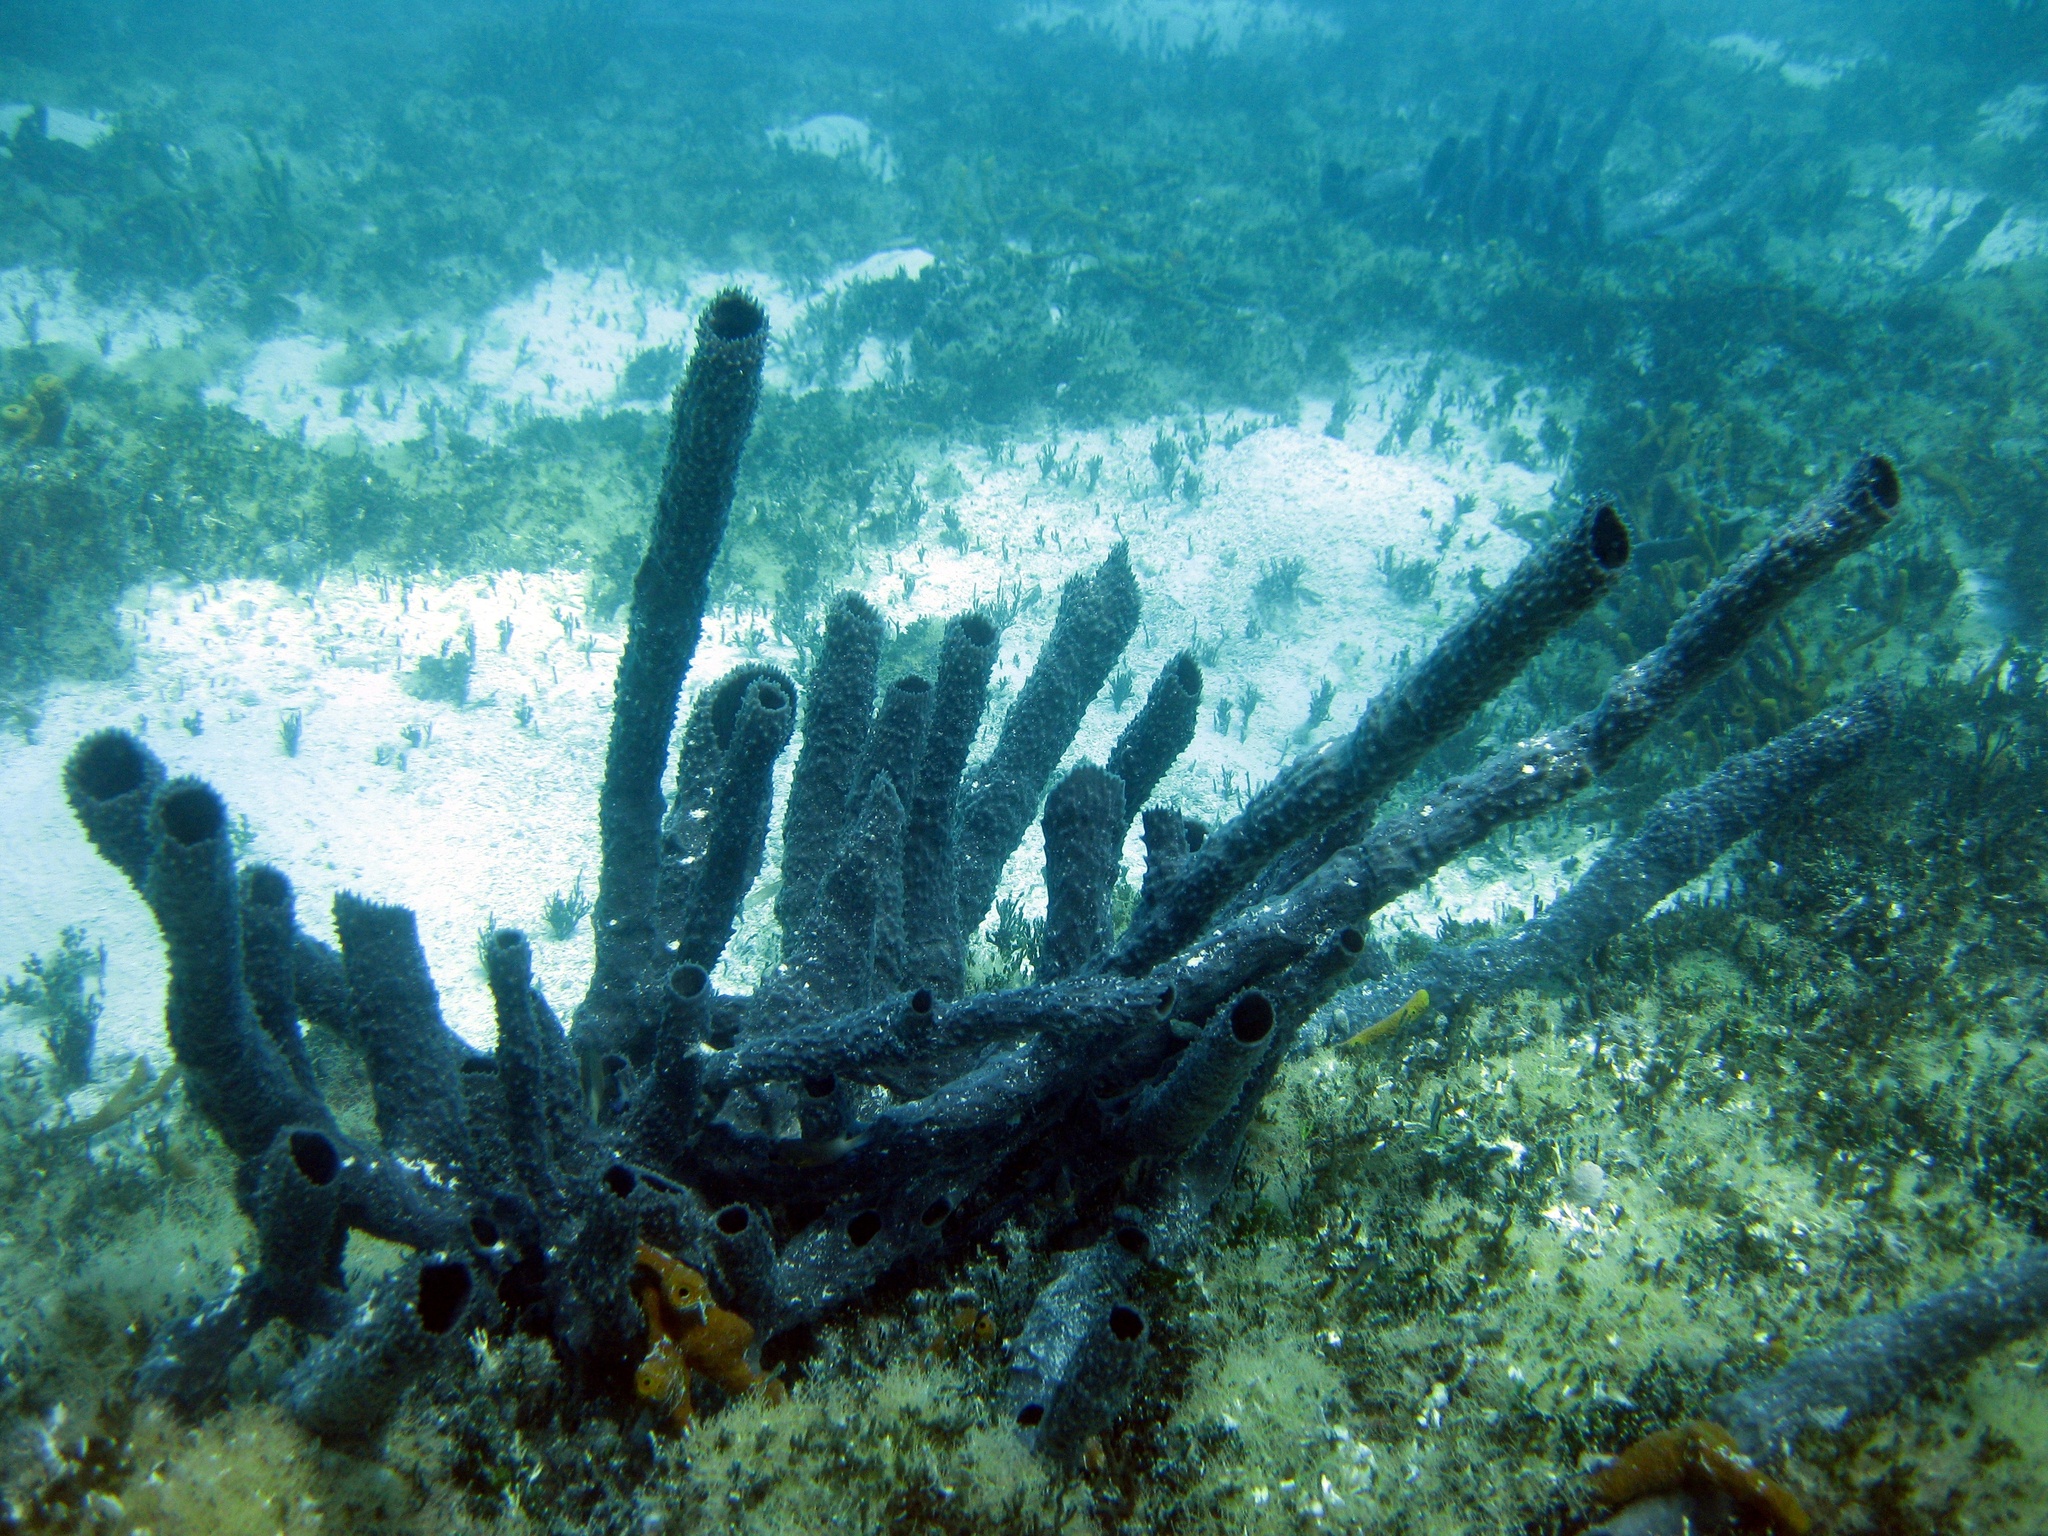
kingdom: Animalia
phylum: Porifera
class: Demospongiae
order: Haplosclerida
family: Callyspongiidae
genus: Callyspongia
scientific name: Callyspongia aculeata
